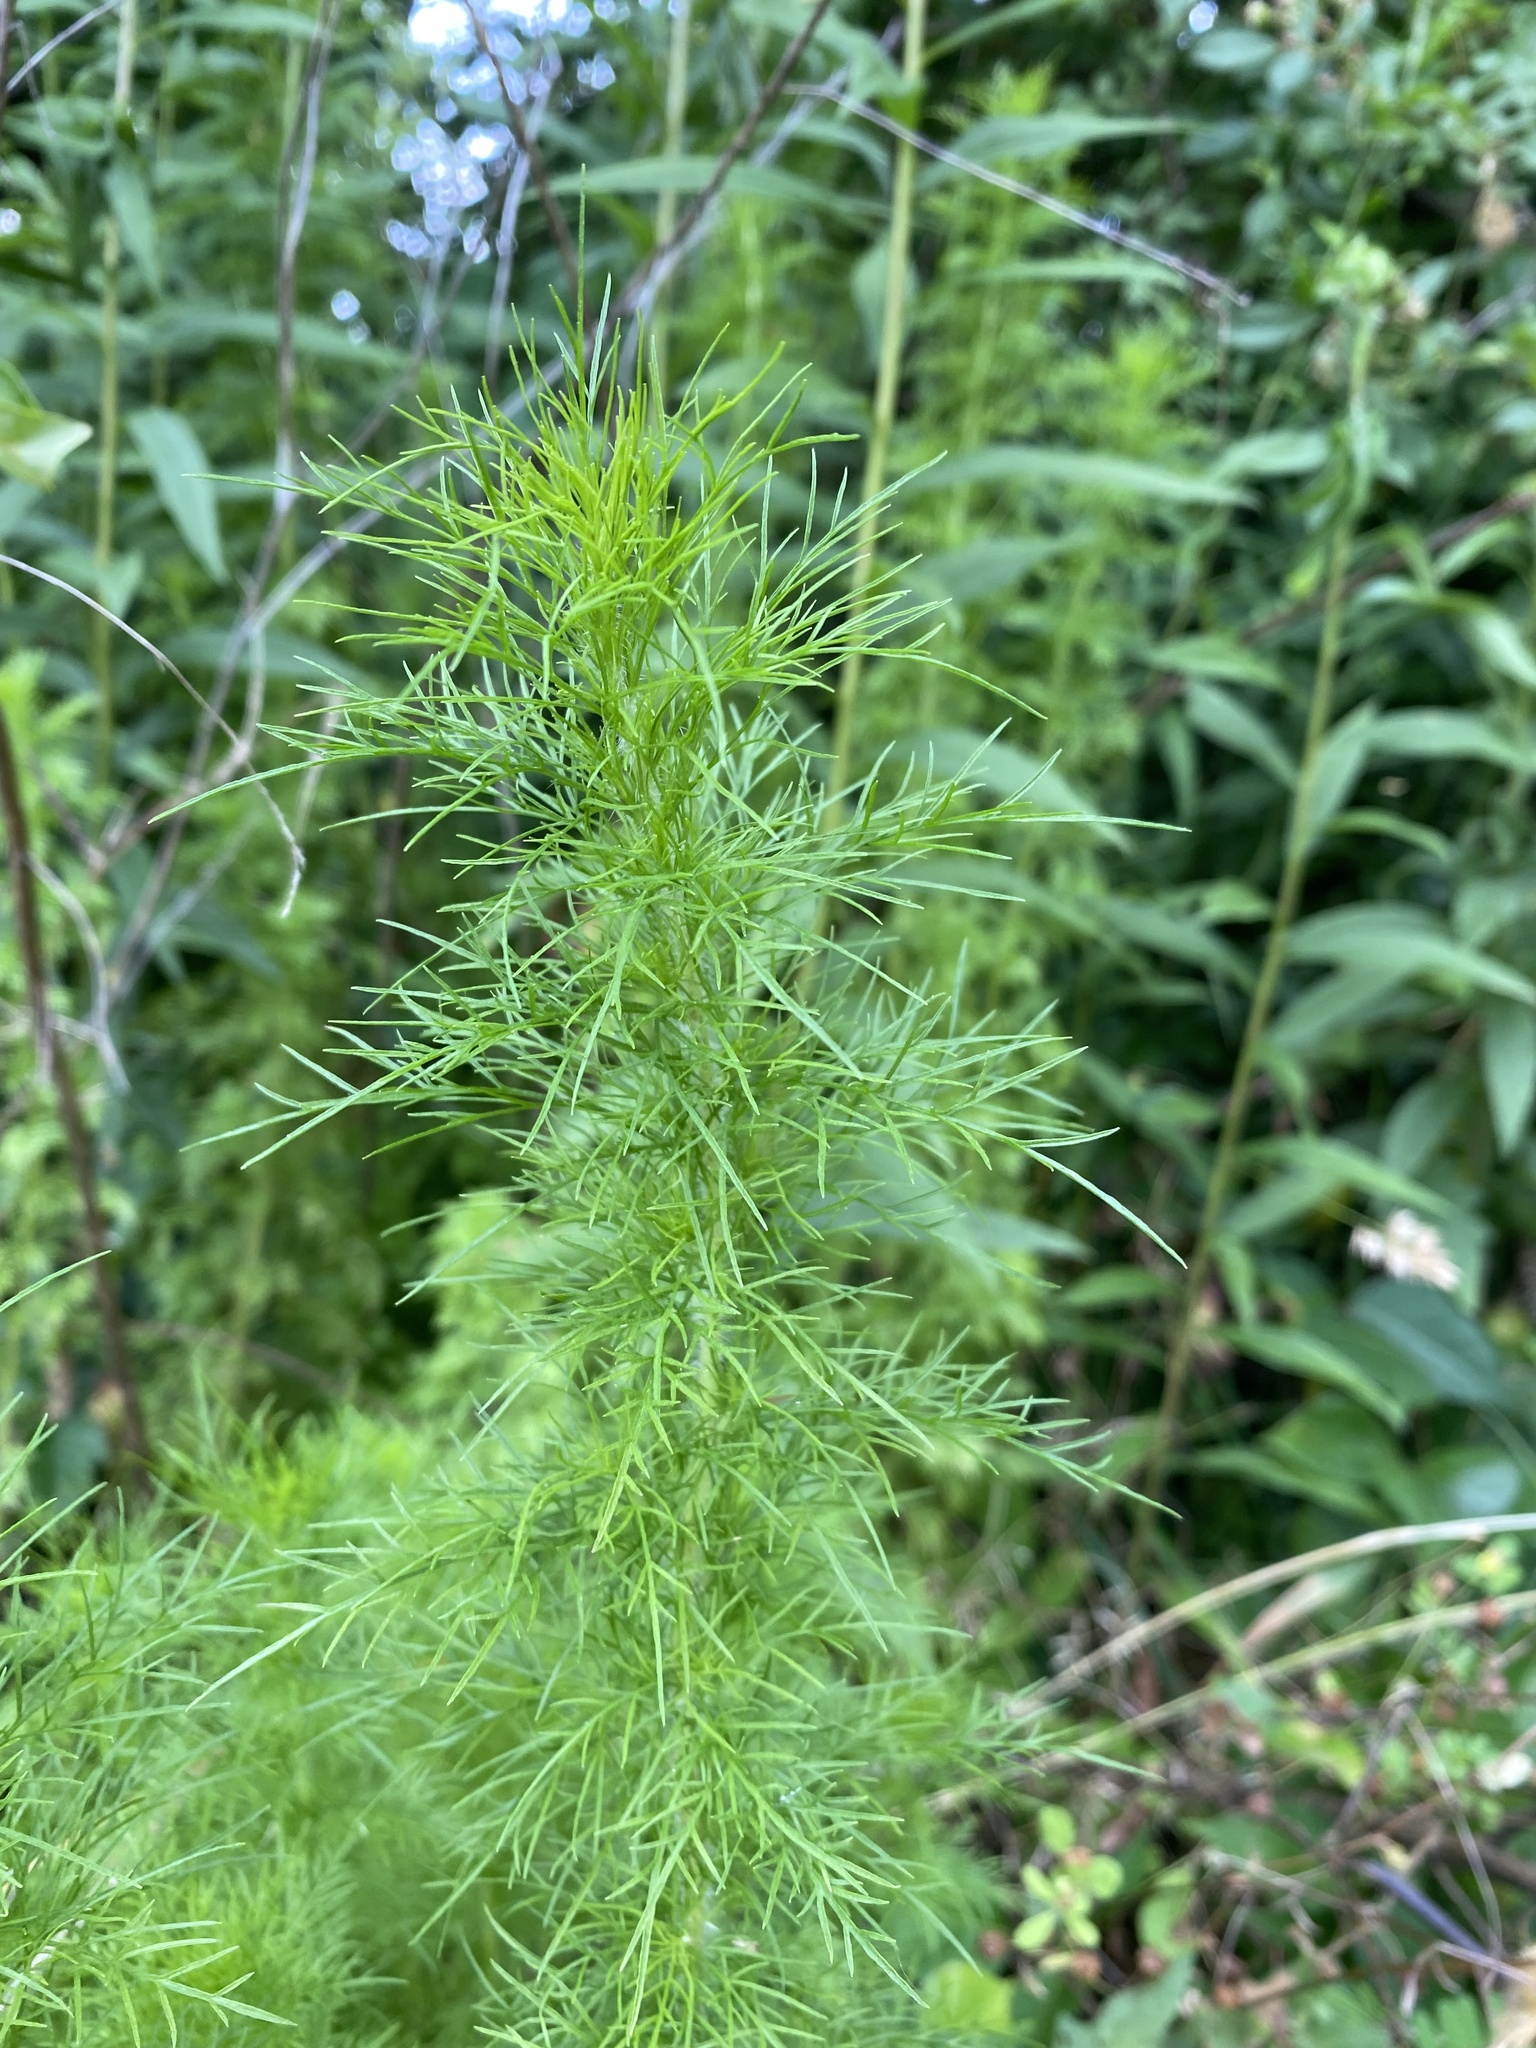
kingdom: Plantae
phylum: Tracheophyta
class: Magnoliopsida
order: Asterales
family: Asteraceae
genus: Eupatorium
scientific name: Eupatorium capillifolium
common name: Dog-fennel
